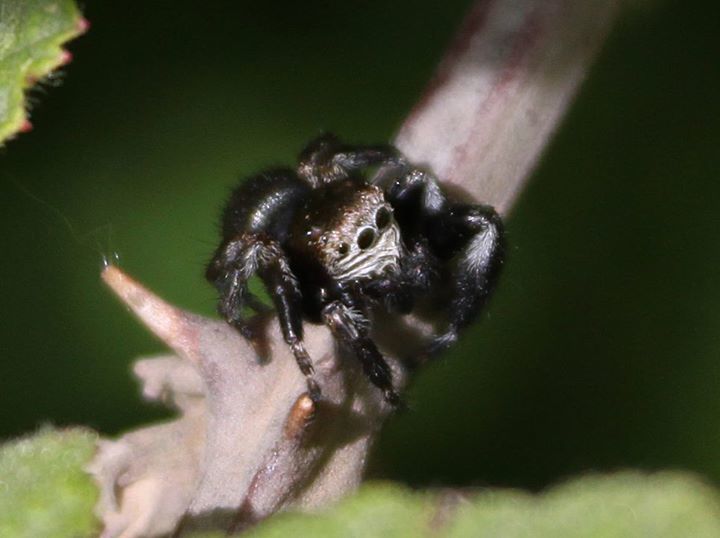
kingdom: Animalia
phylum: Arthropoda
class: Arachnida
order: Araneae
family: Salticidae
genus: Evarcha
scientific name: Evarcha arcuata
